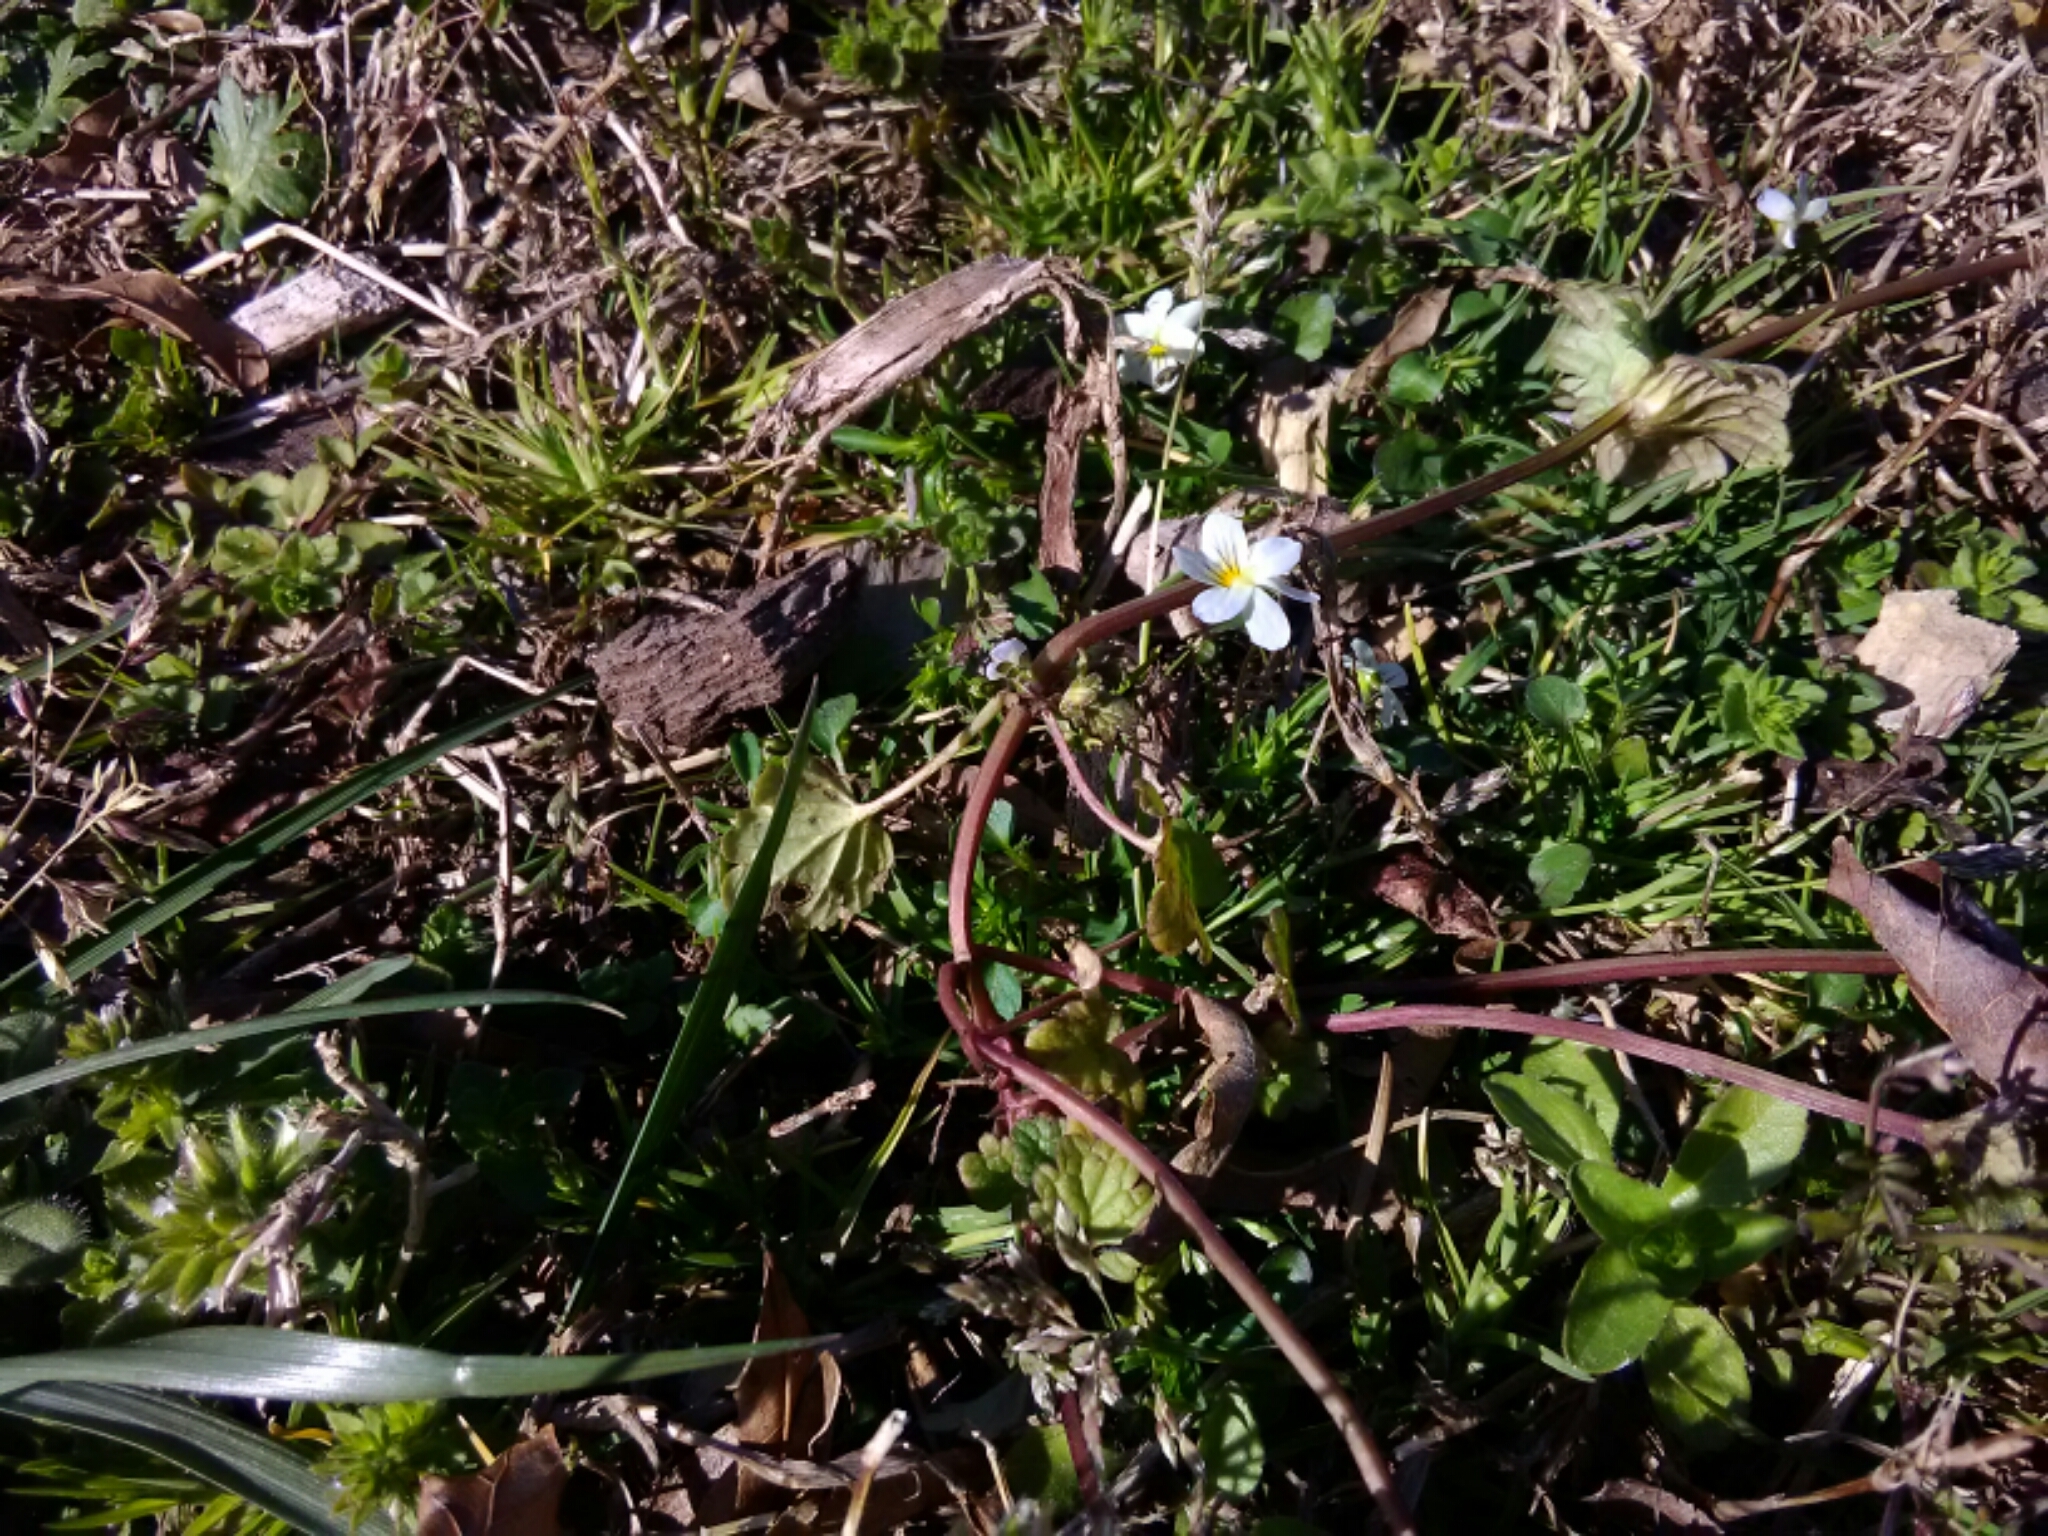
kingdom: Plantae
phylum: Tracheophyta
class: Magnoliopsida
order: Malpighiales
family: Violaceae
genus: Viola
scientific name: Viola rafinesquei
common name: American field pansy
